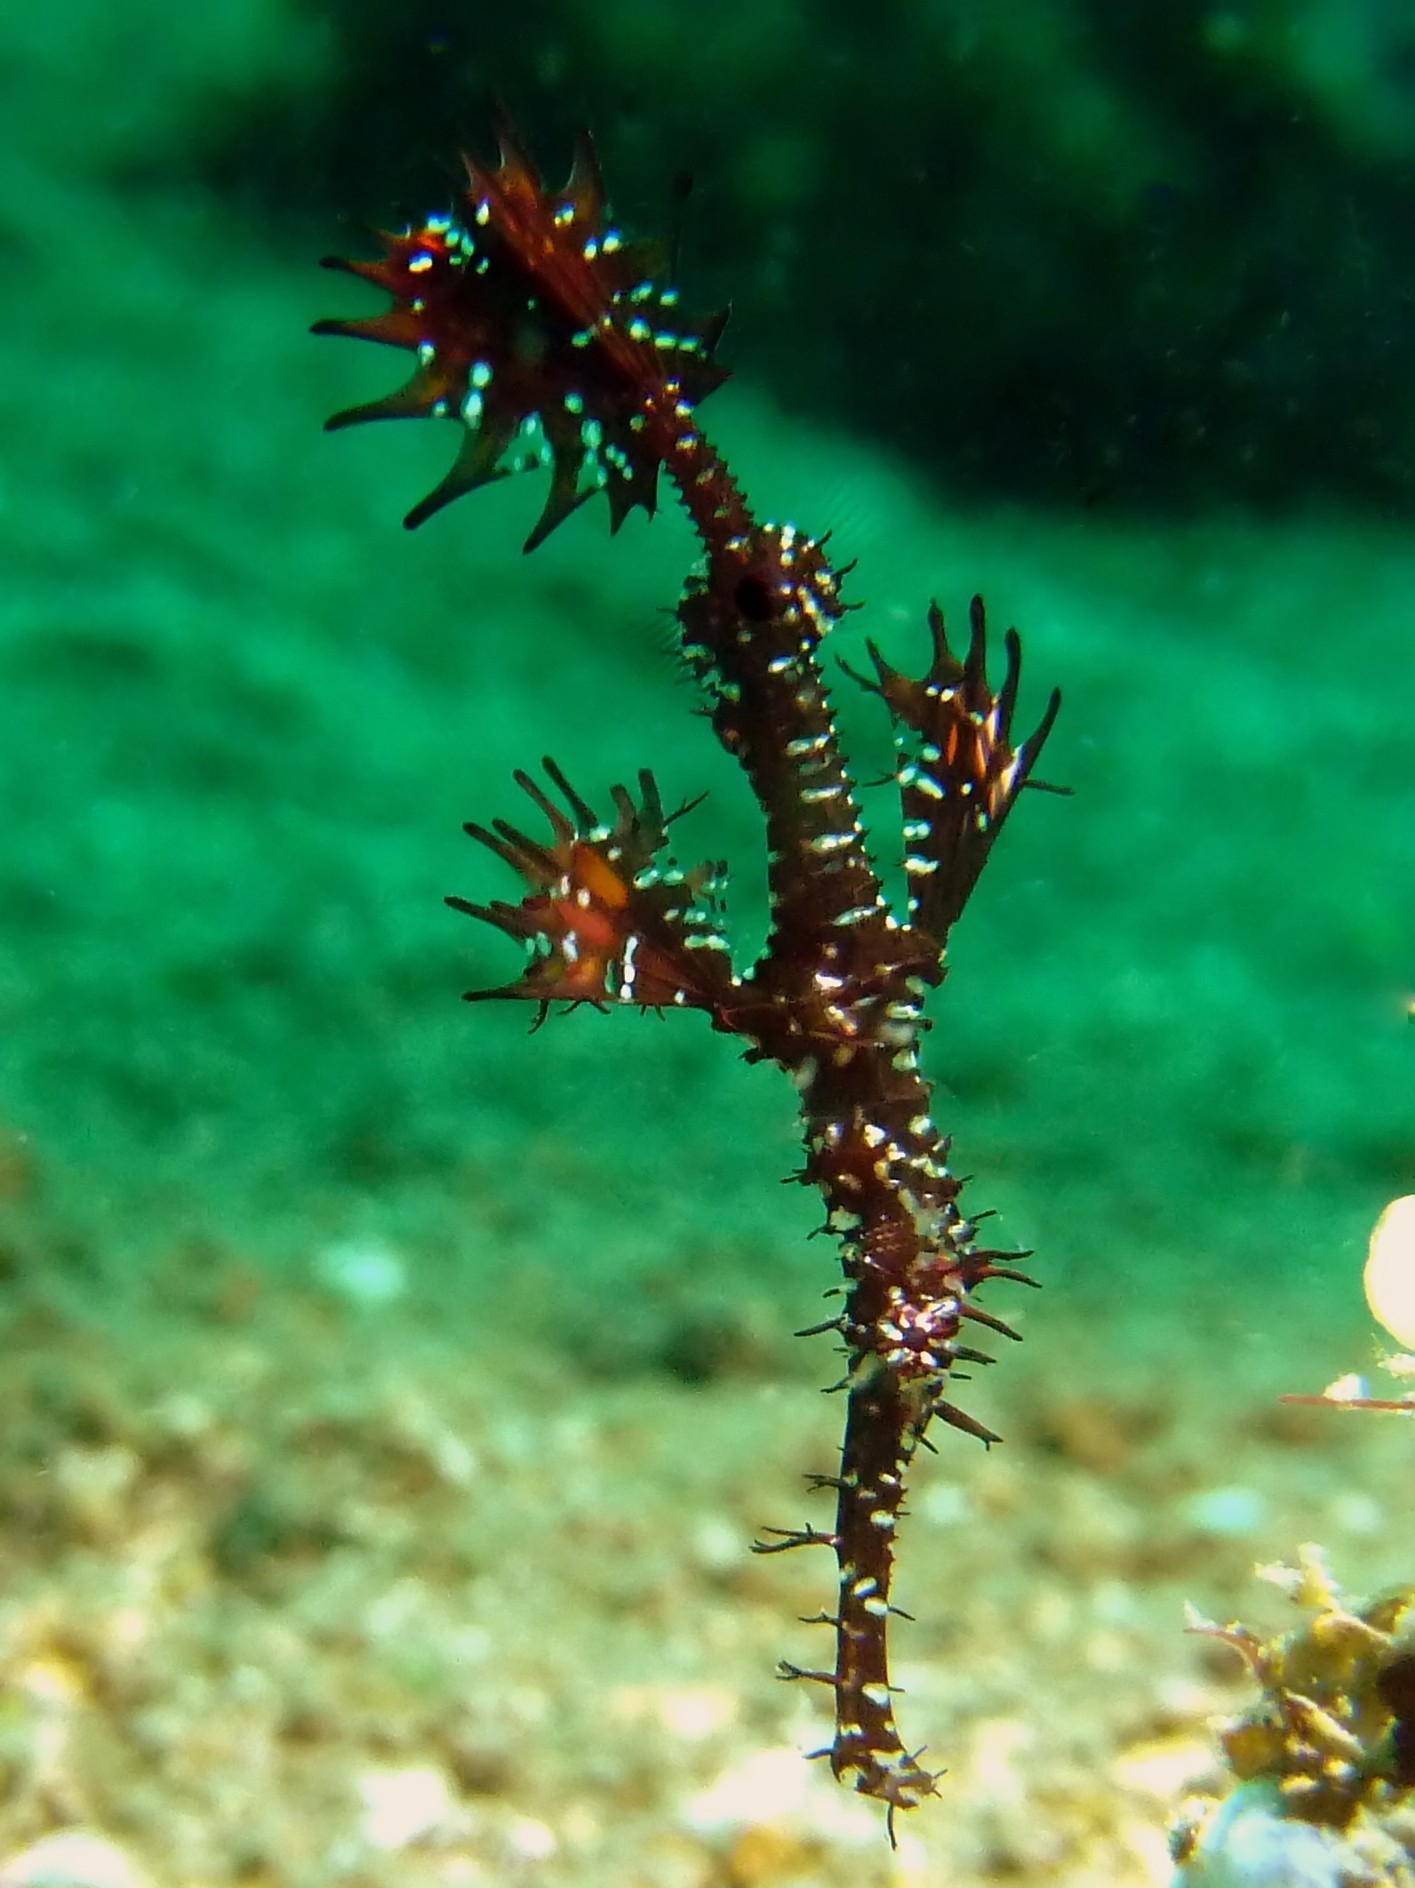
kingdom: Animalia
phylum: Chordata
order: Syngnathiformes
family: Solenostomidae
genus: Solenostomus
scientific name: Solenostomus paradoxus
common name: Ghost pipefish
